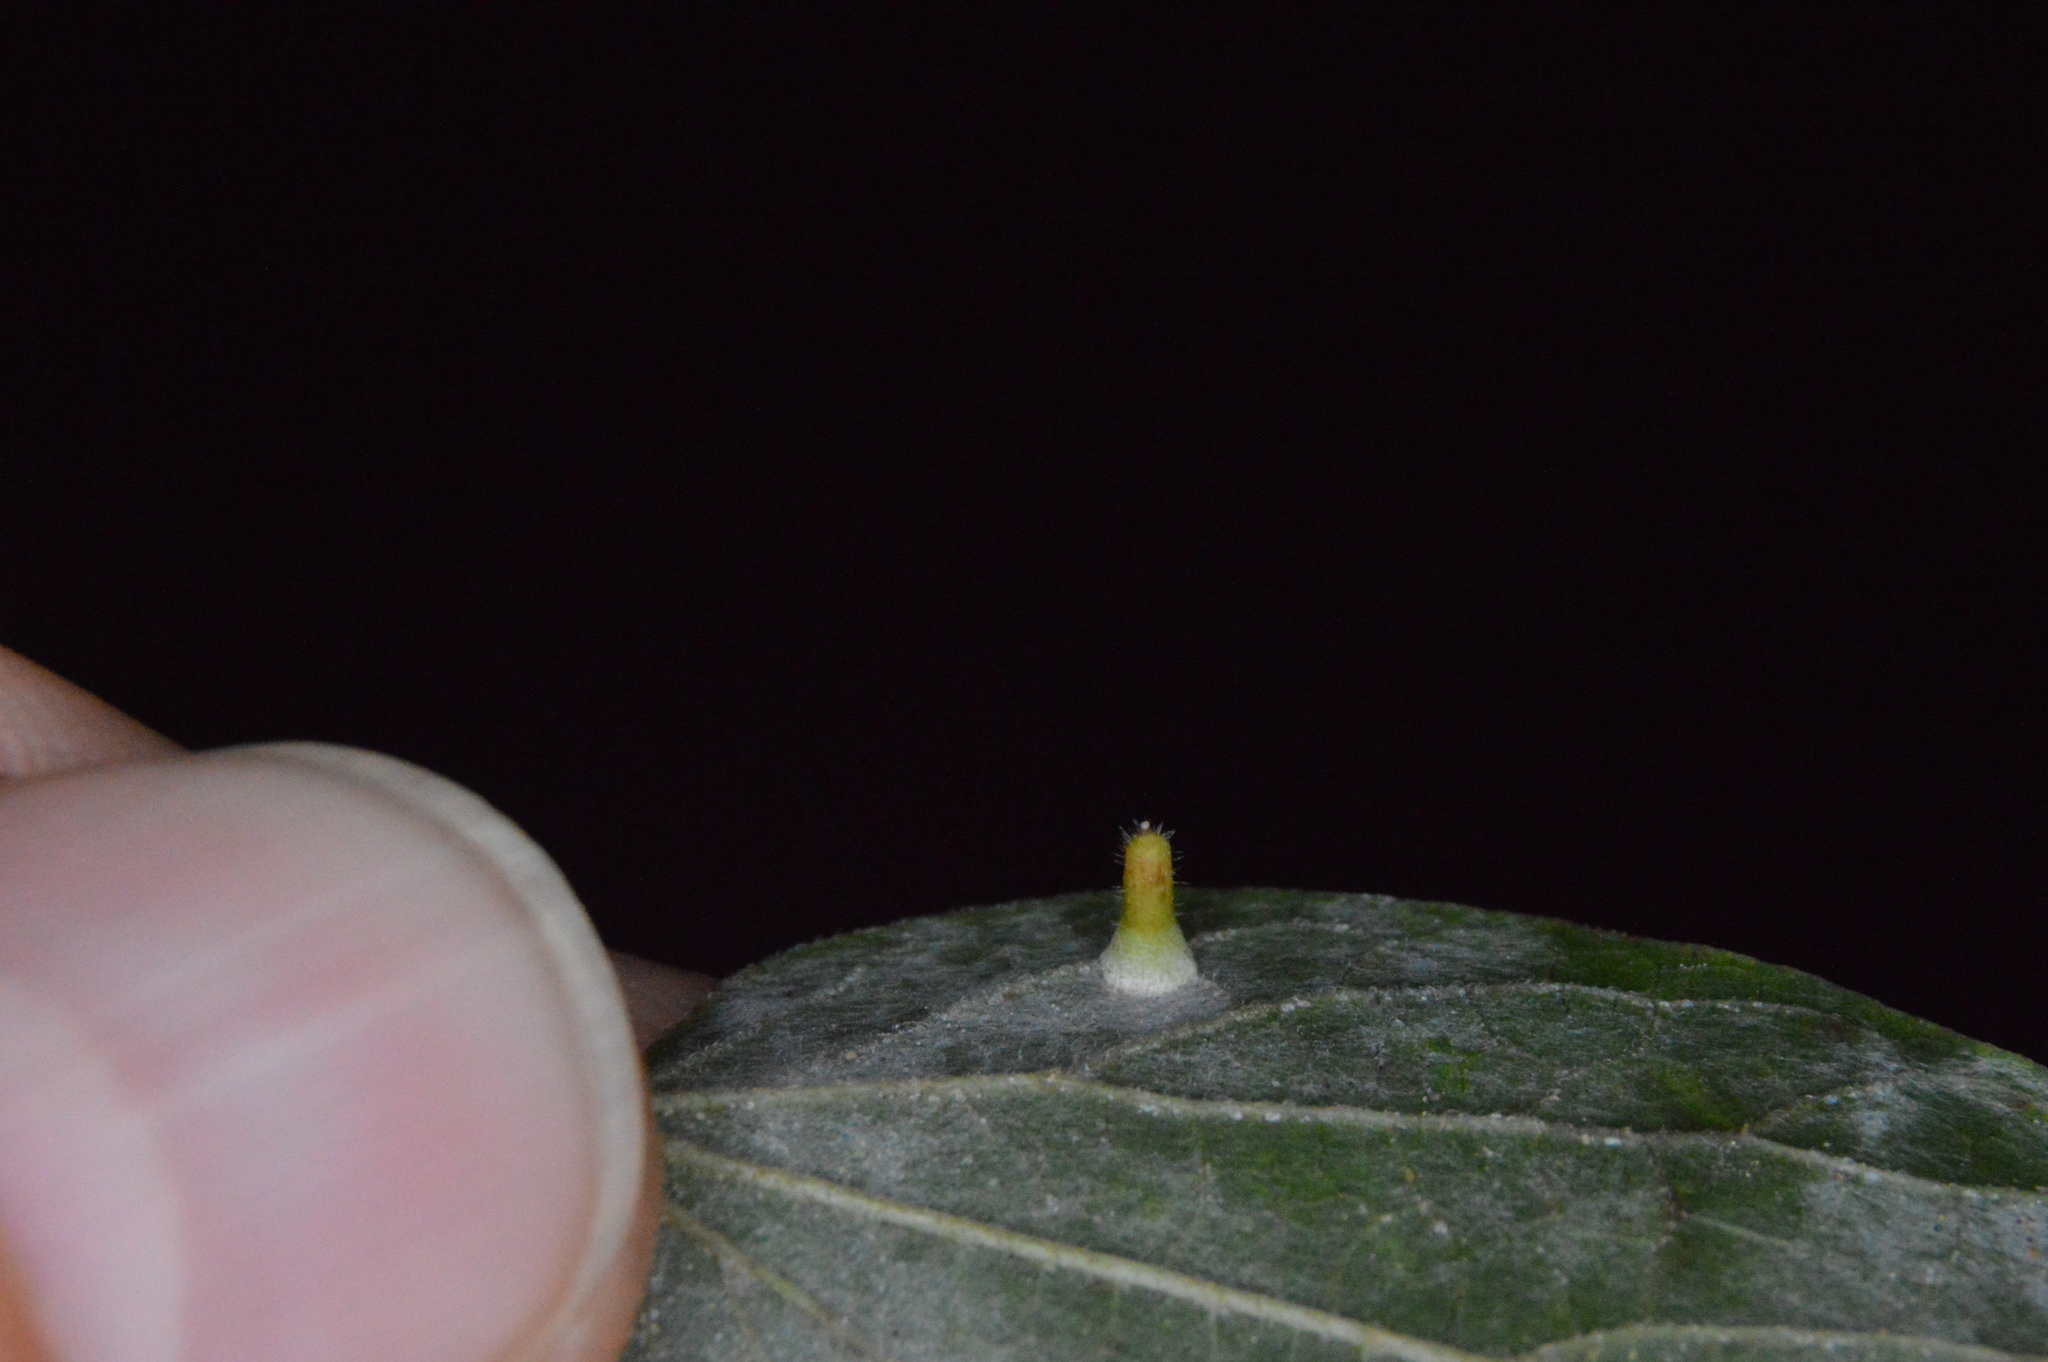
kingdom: Animalia
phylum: Arthropoda
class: Insecta
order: Diptera
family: Cecidomyiidae
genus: Celticecis
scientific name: Celticecis aciculata
